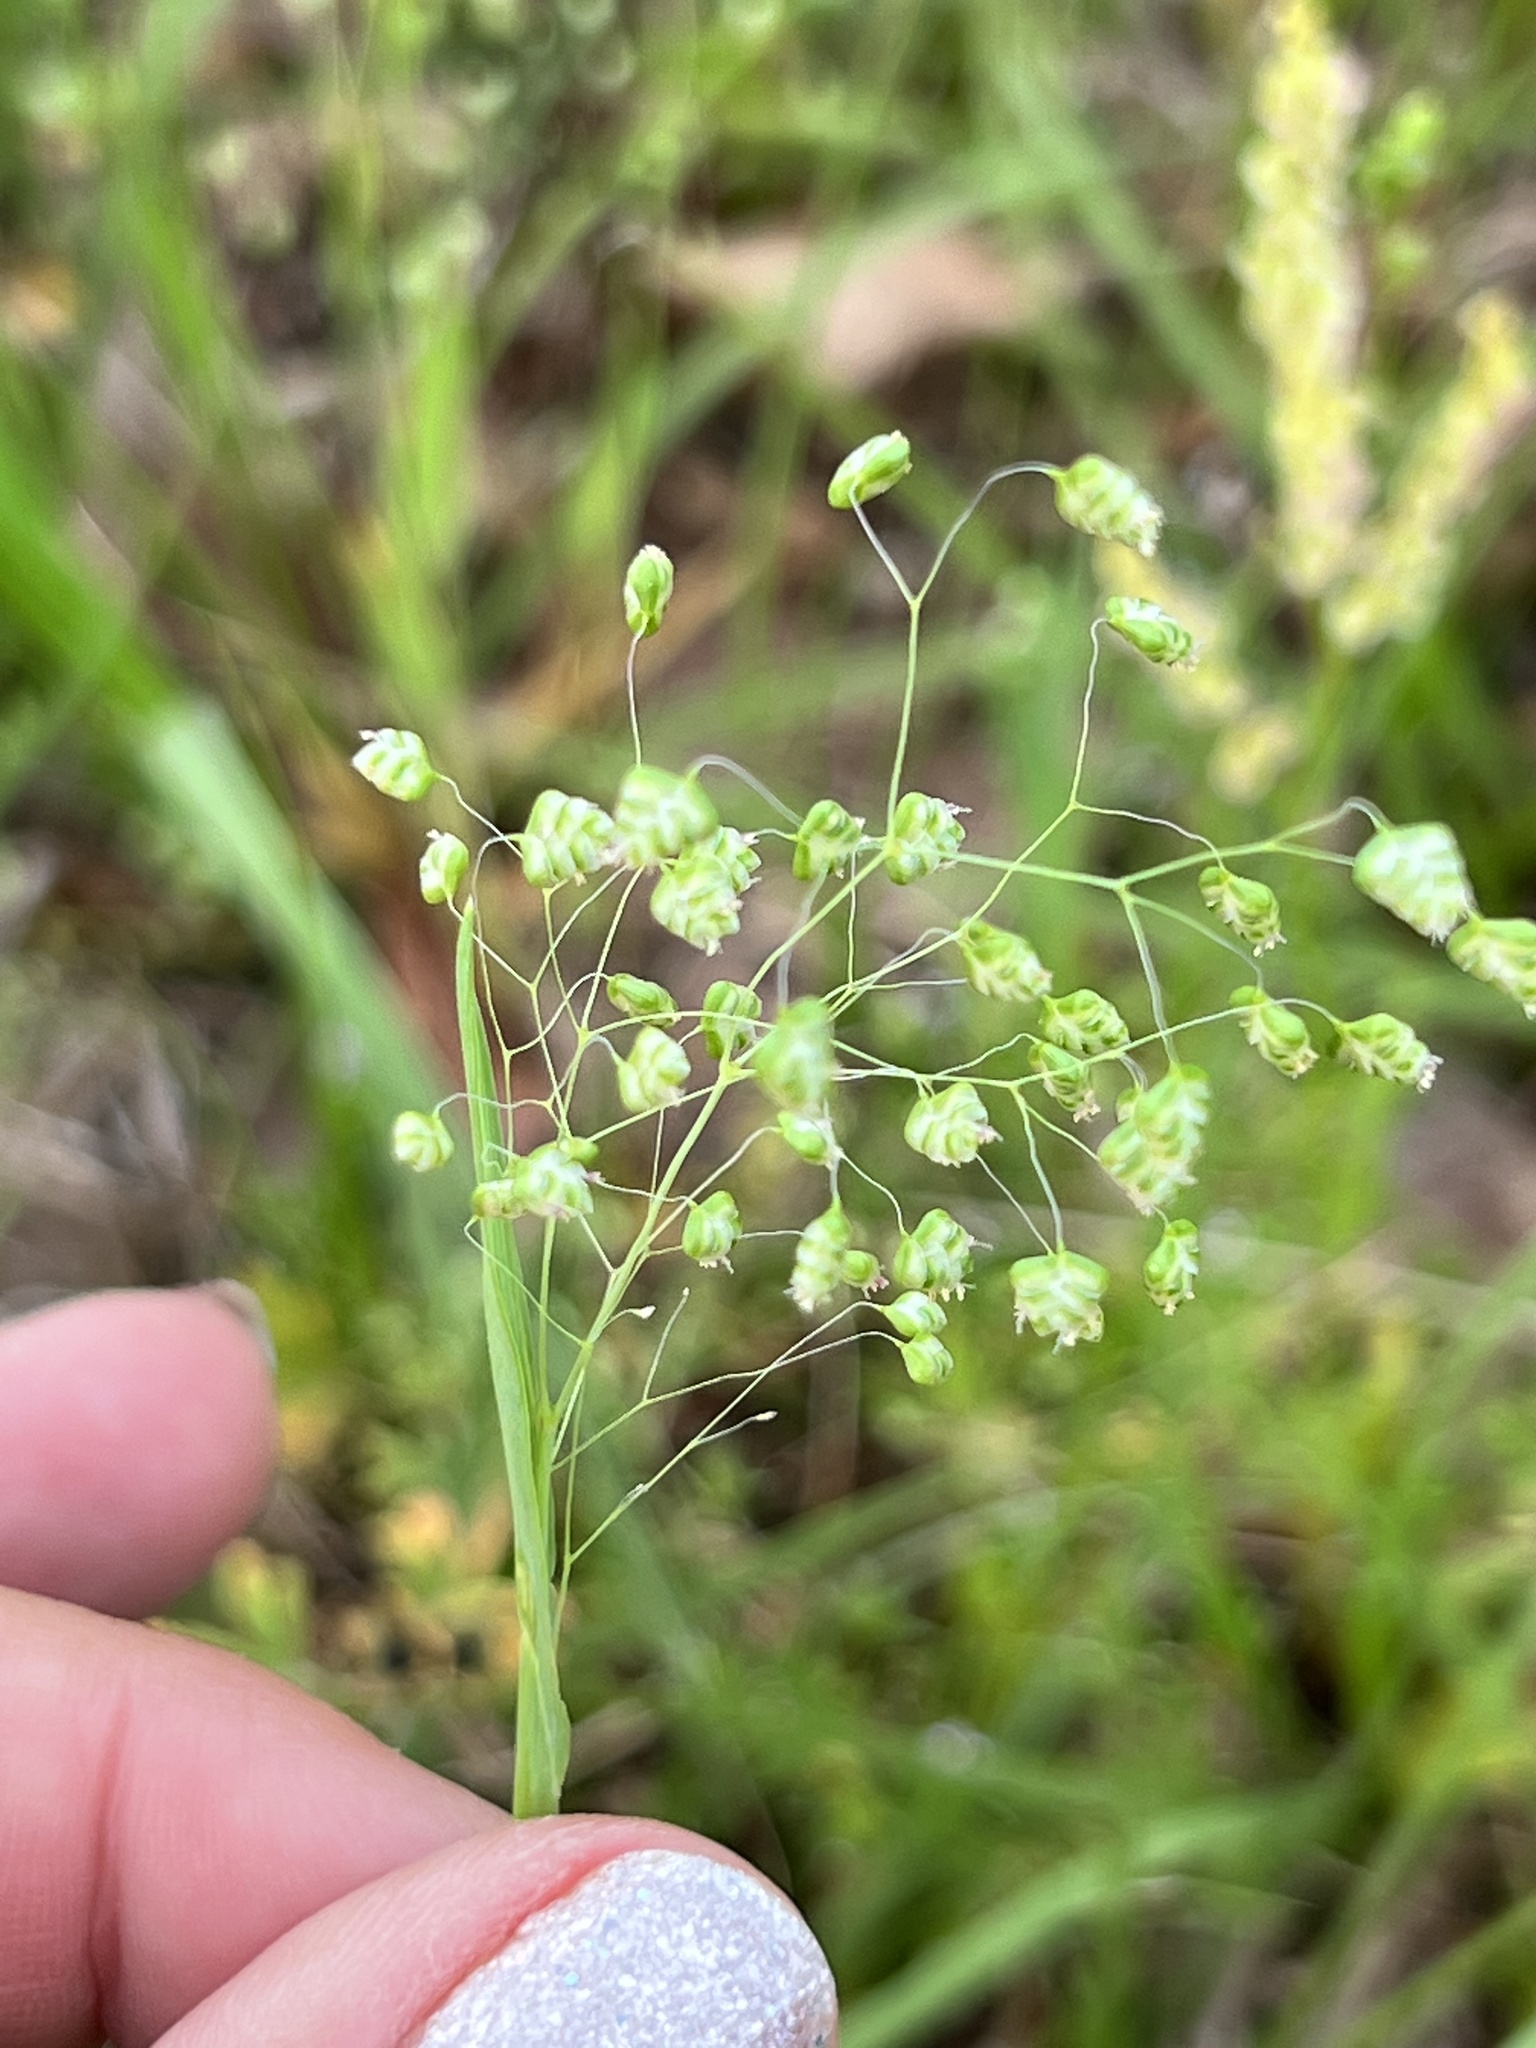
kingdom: Plantae
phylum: Tracheophyta
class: Liliopsida
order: Poales
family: Poaceae
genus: Briza
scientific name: Briza minor
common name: Lesser quaking-grass
